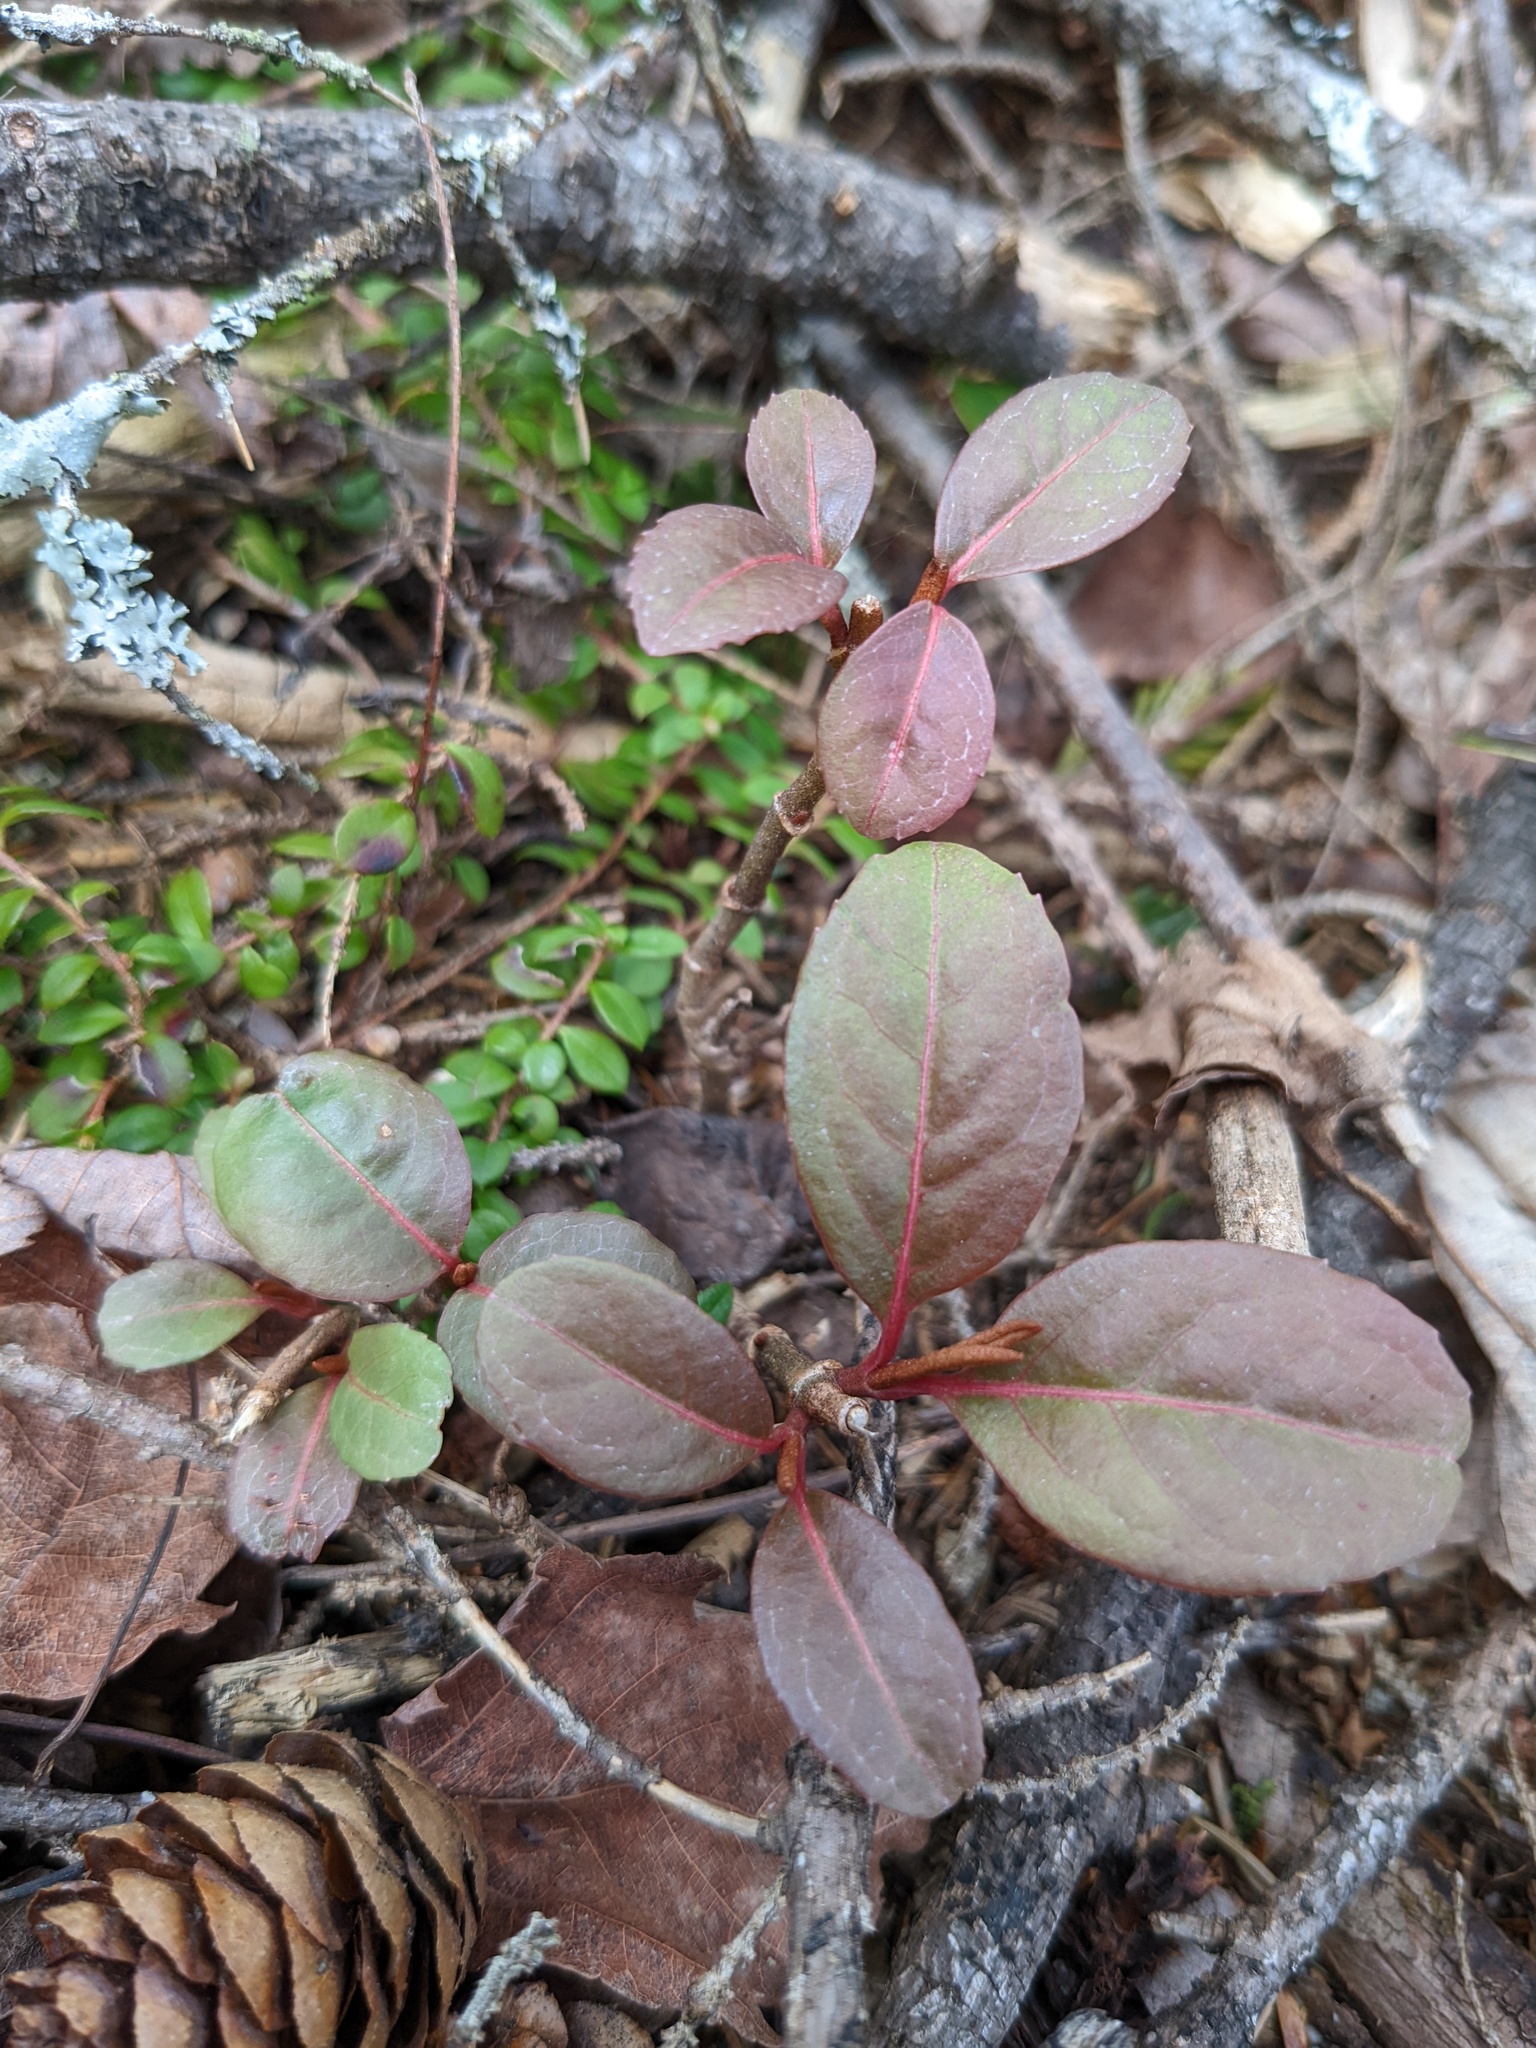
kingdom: Plantae
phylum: Tracheophyta
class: Magnoliopsida
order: Dipsacales
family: Viburnaceae
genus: Viburnum
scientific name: Viburnum cassinoides
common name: Swamp haw
